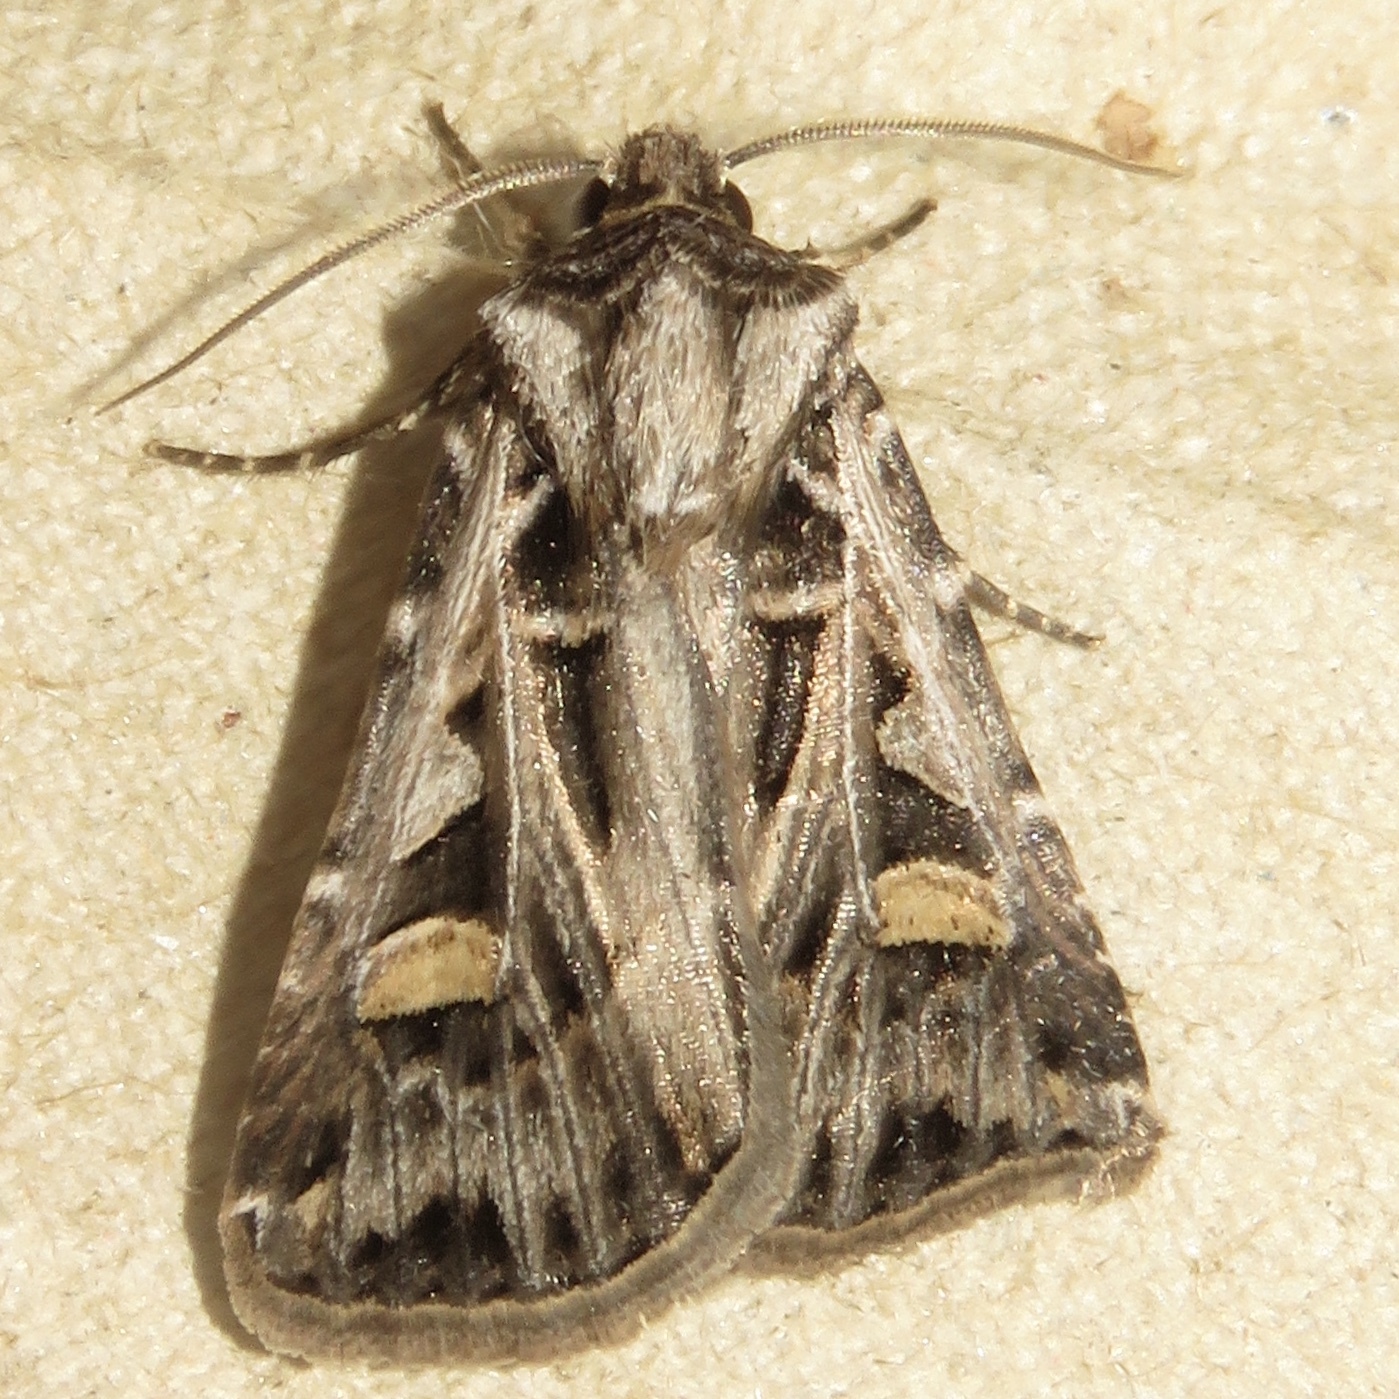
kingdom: Animalia
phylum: Arthropoda
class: Insecta
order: Lepidoptera
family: Noctuidae
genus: Feltia
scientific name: Feltia jaculifera
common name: Dingy cutworm moth
